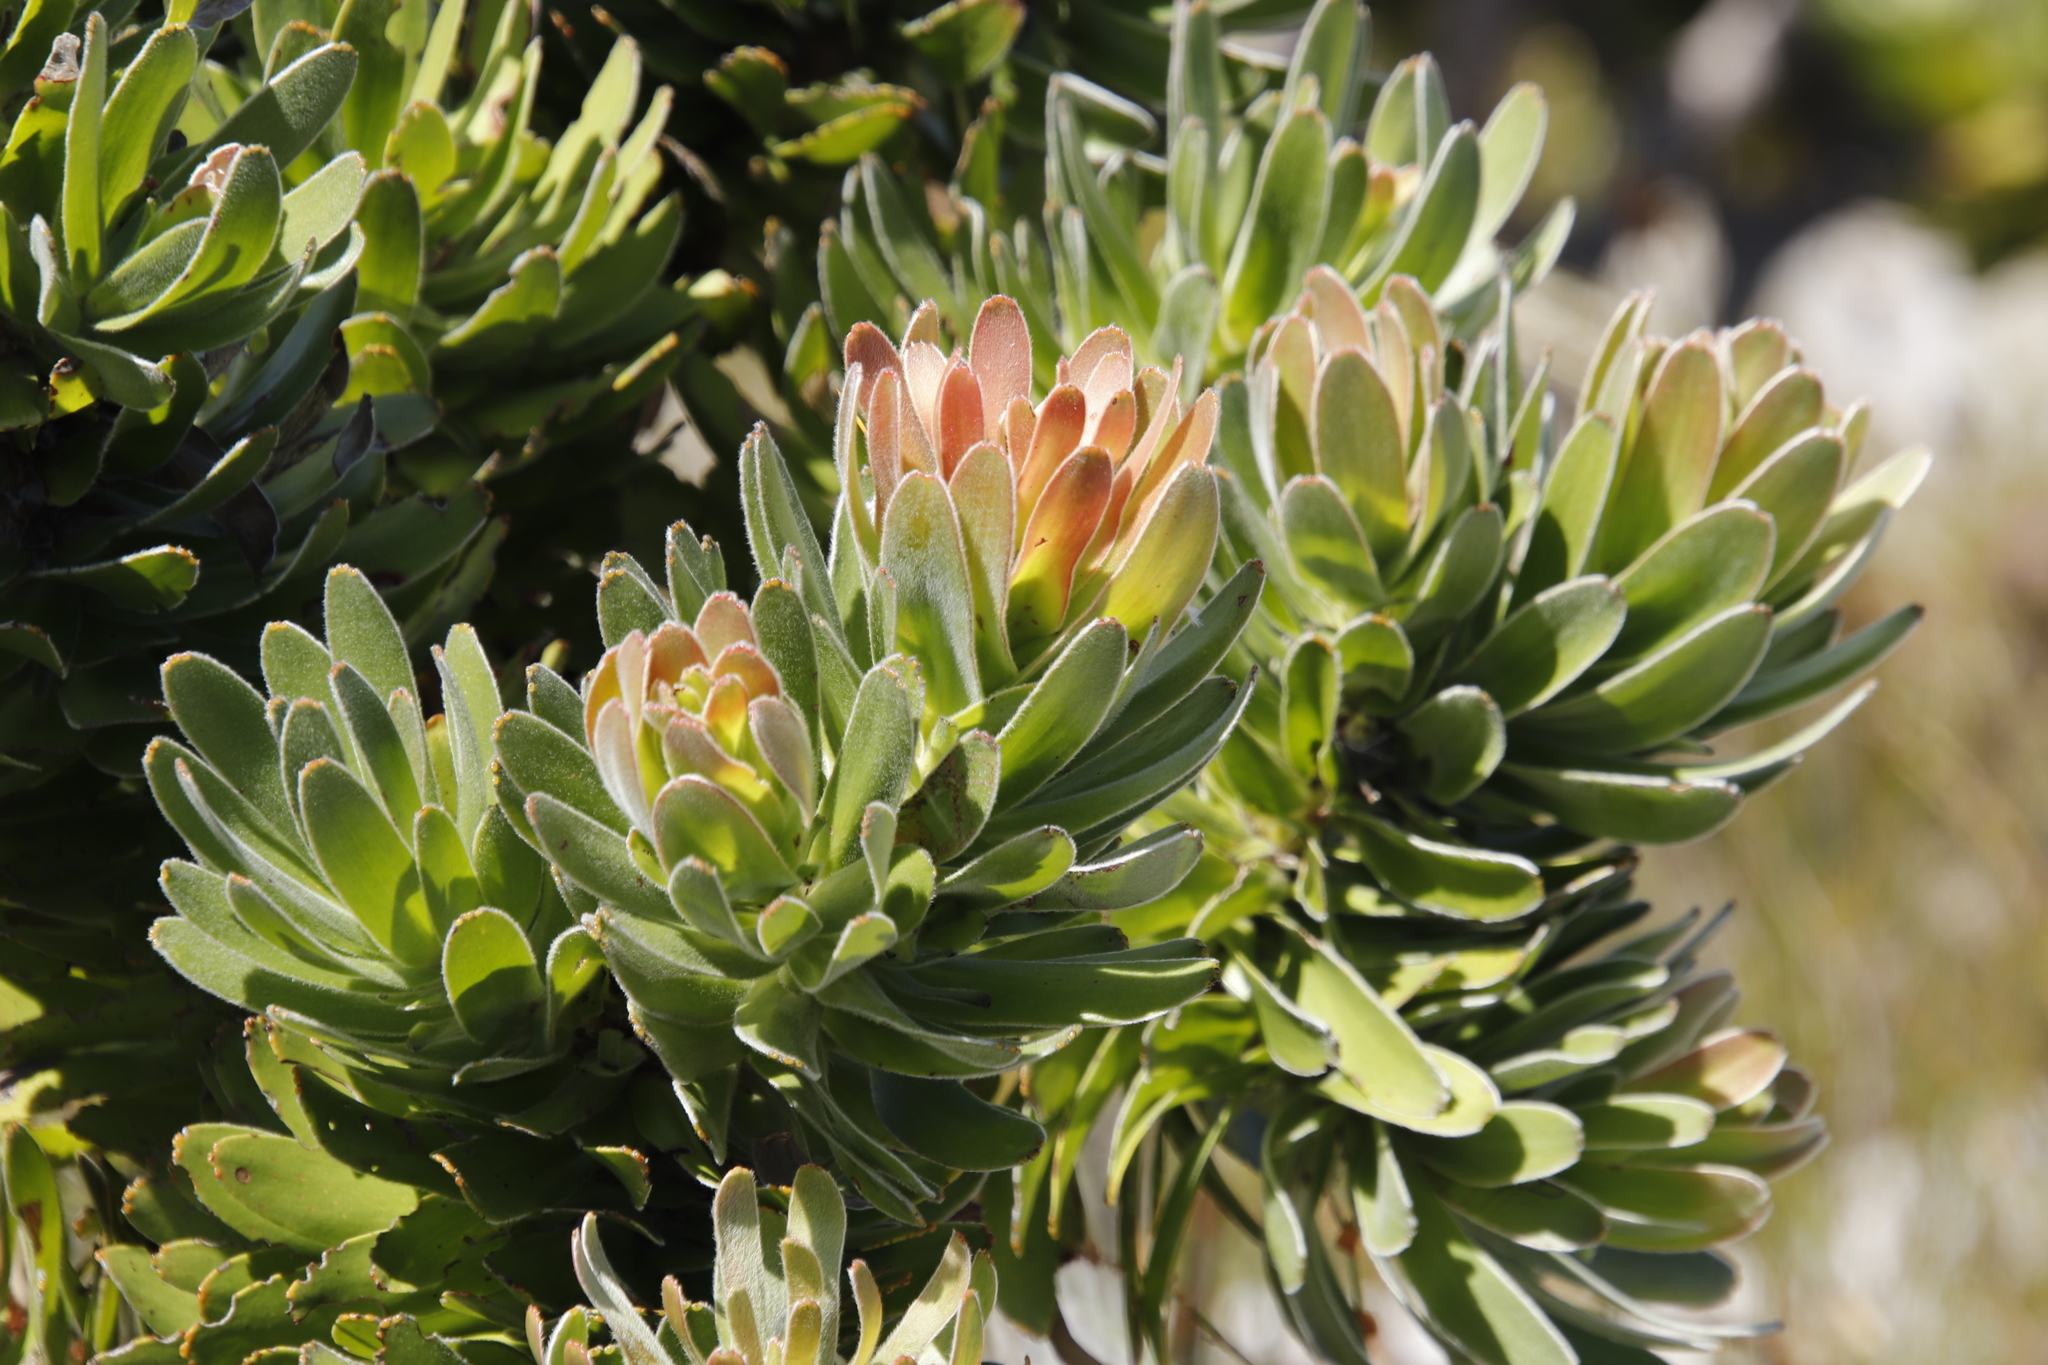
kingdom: Plantae
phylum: Tracheophyta
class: Magnoliopsida
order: Proteales
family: Proteaceae
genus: Mimetes
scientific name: Mimetes fimbriifolius
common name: Fringed bottlebrush
